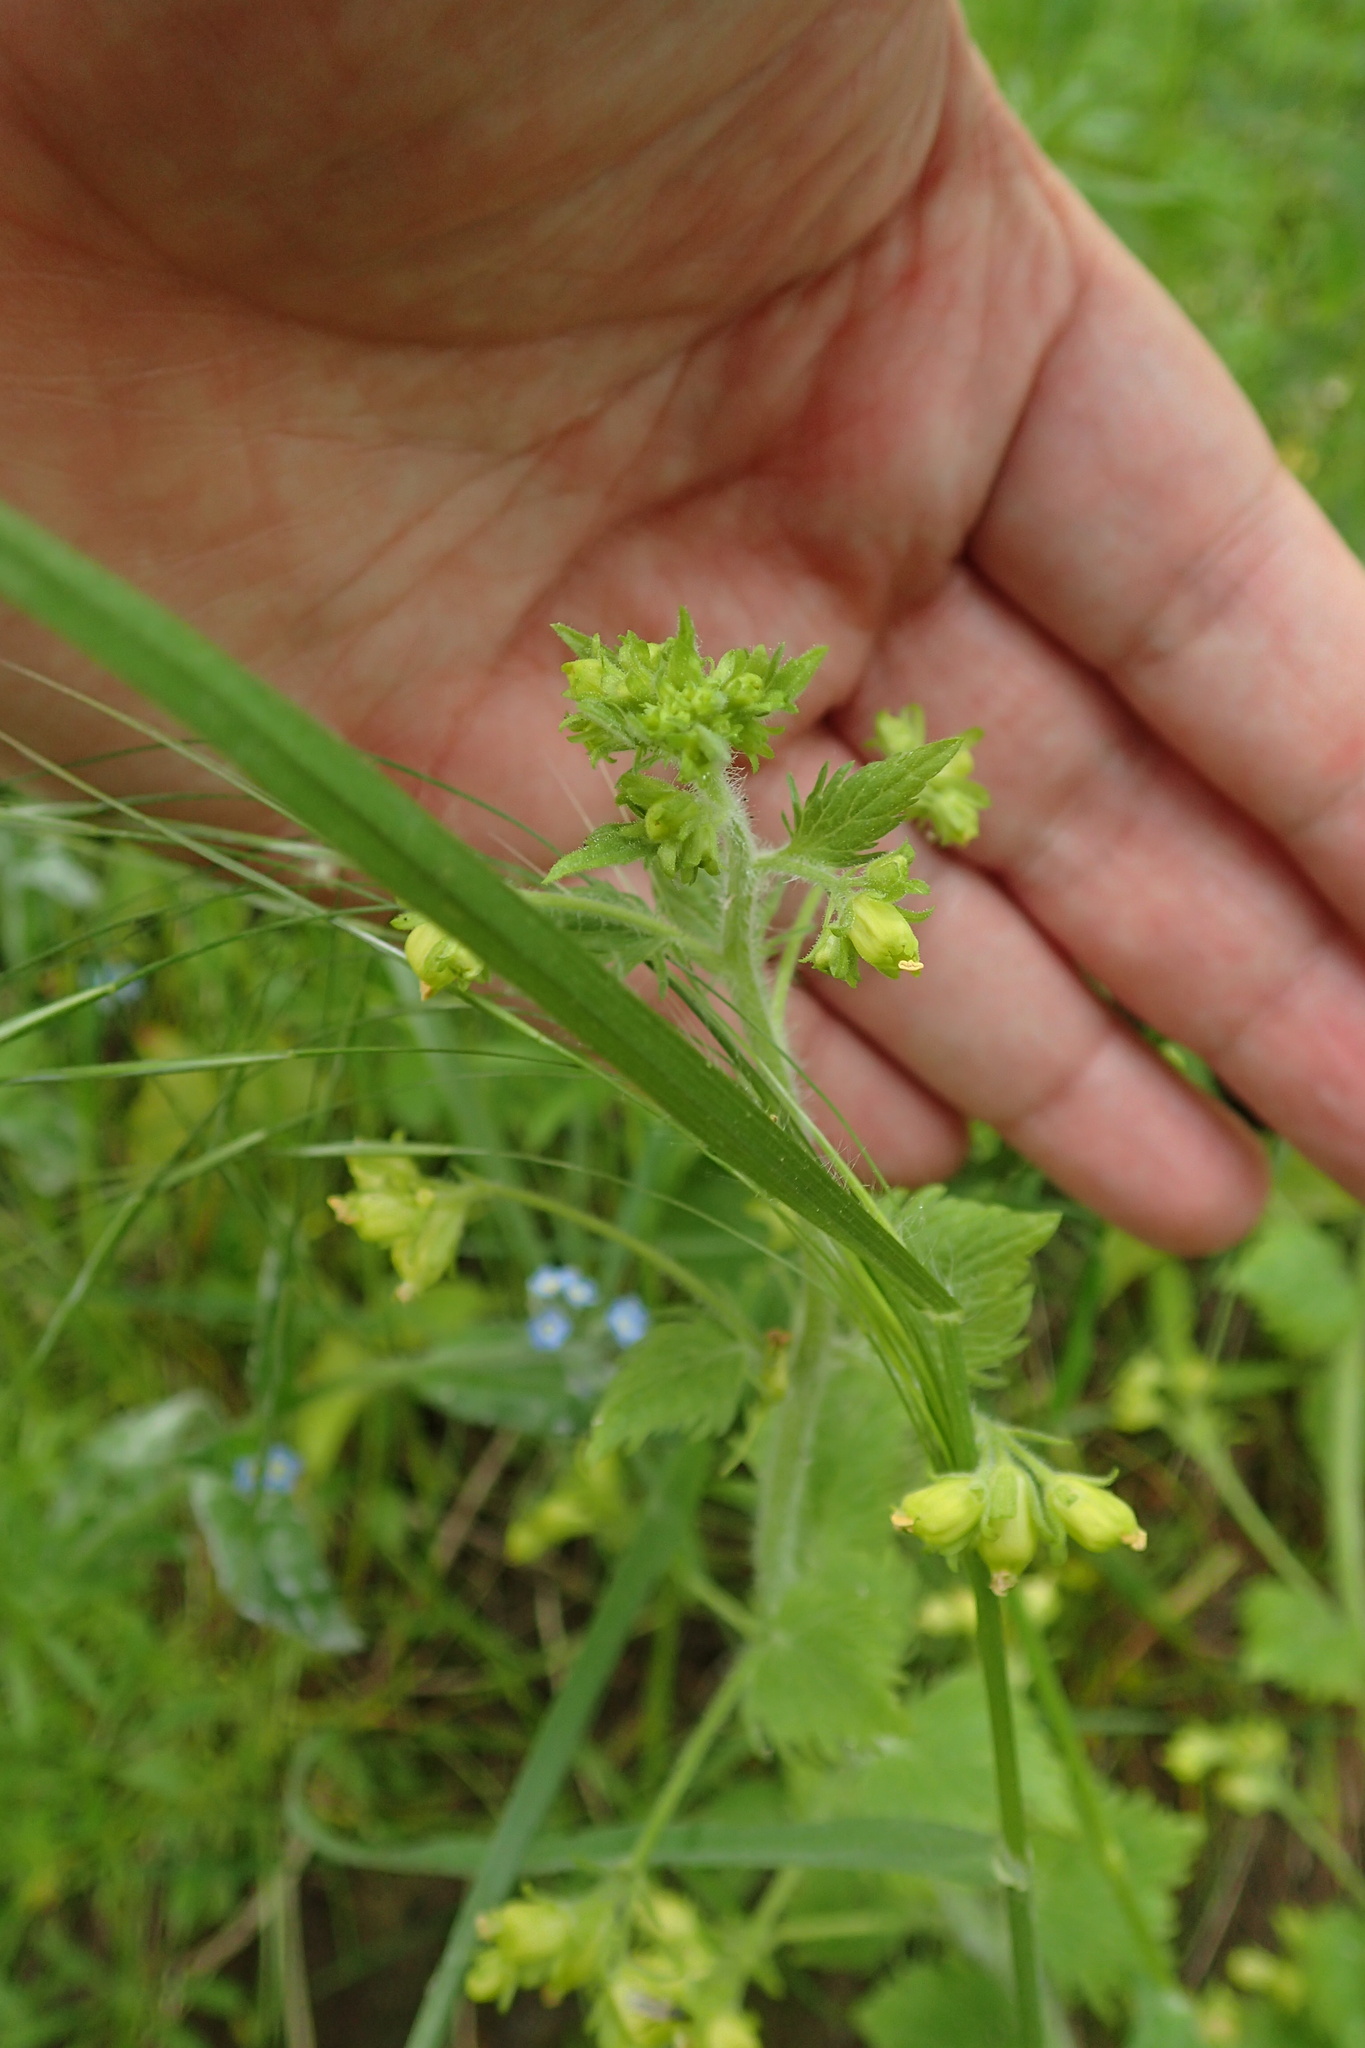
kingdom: Plantae
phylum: Tracheophyta
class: Magnoliopsida
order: Lamiales
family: Scrophulariaceae
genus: Scrophularia
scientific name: Scrophularia vernalis
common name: Yellow figwort
